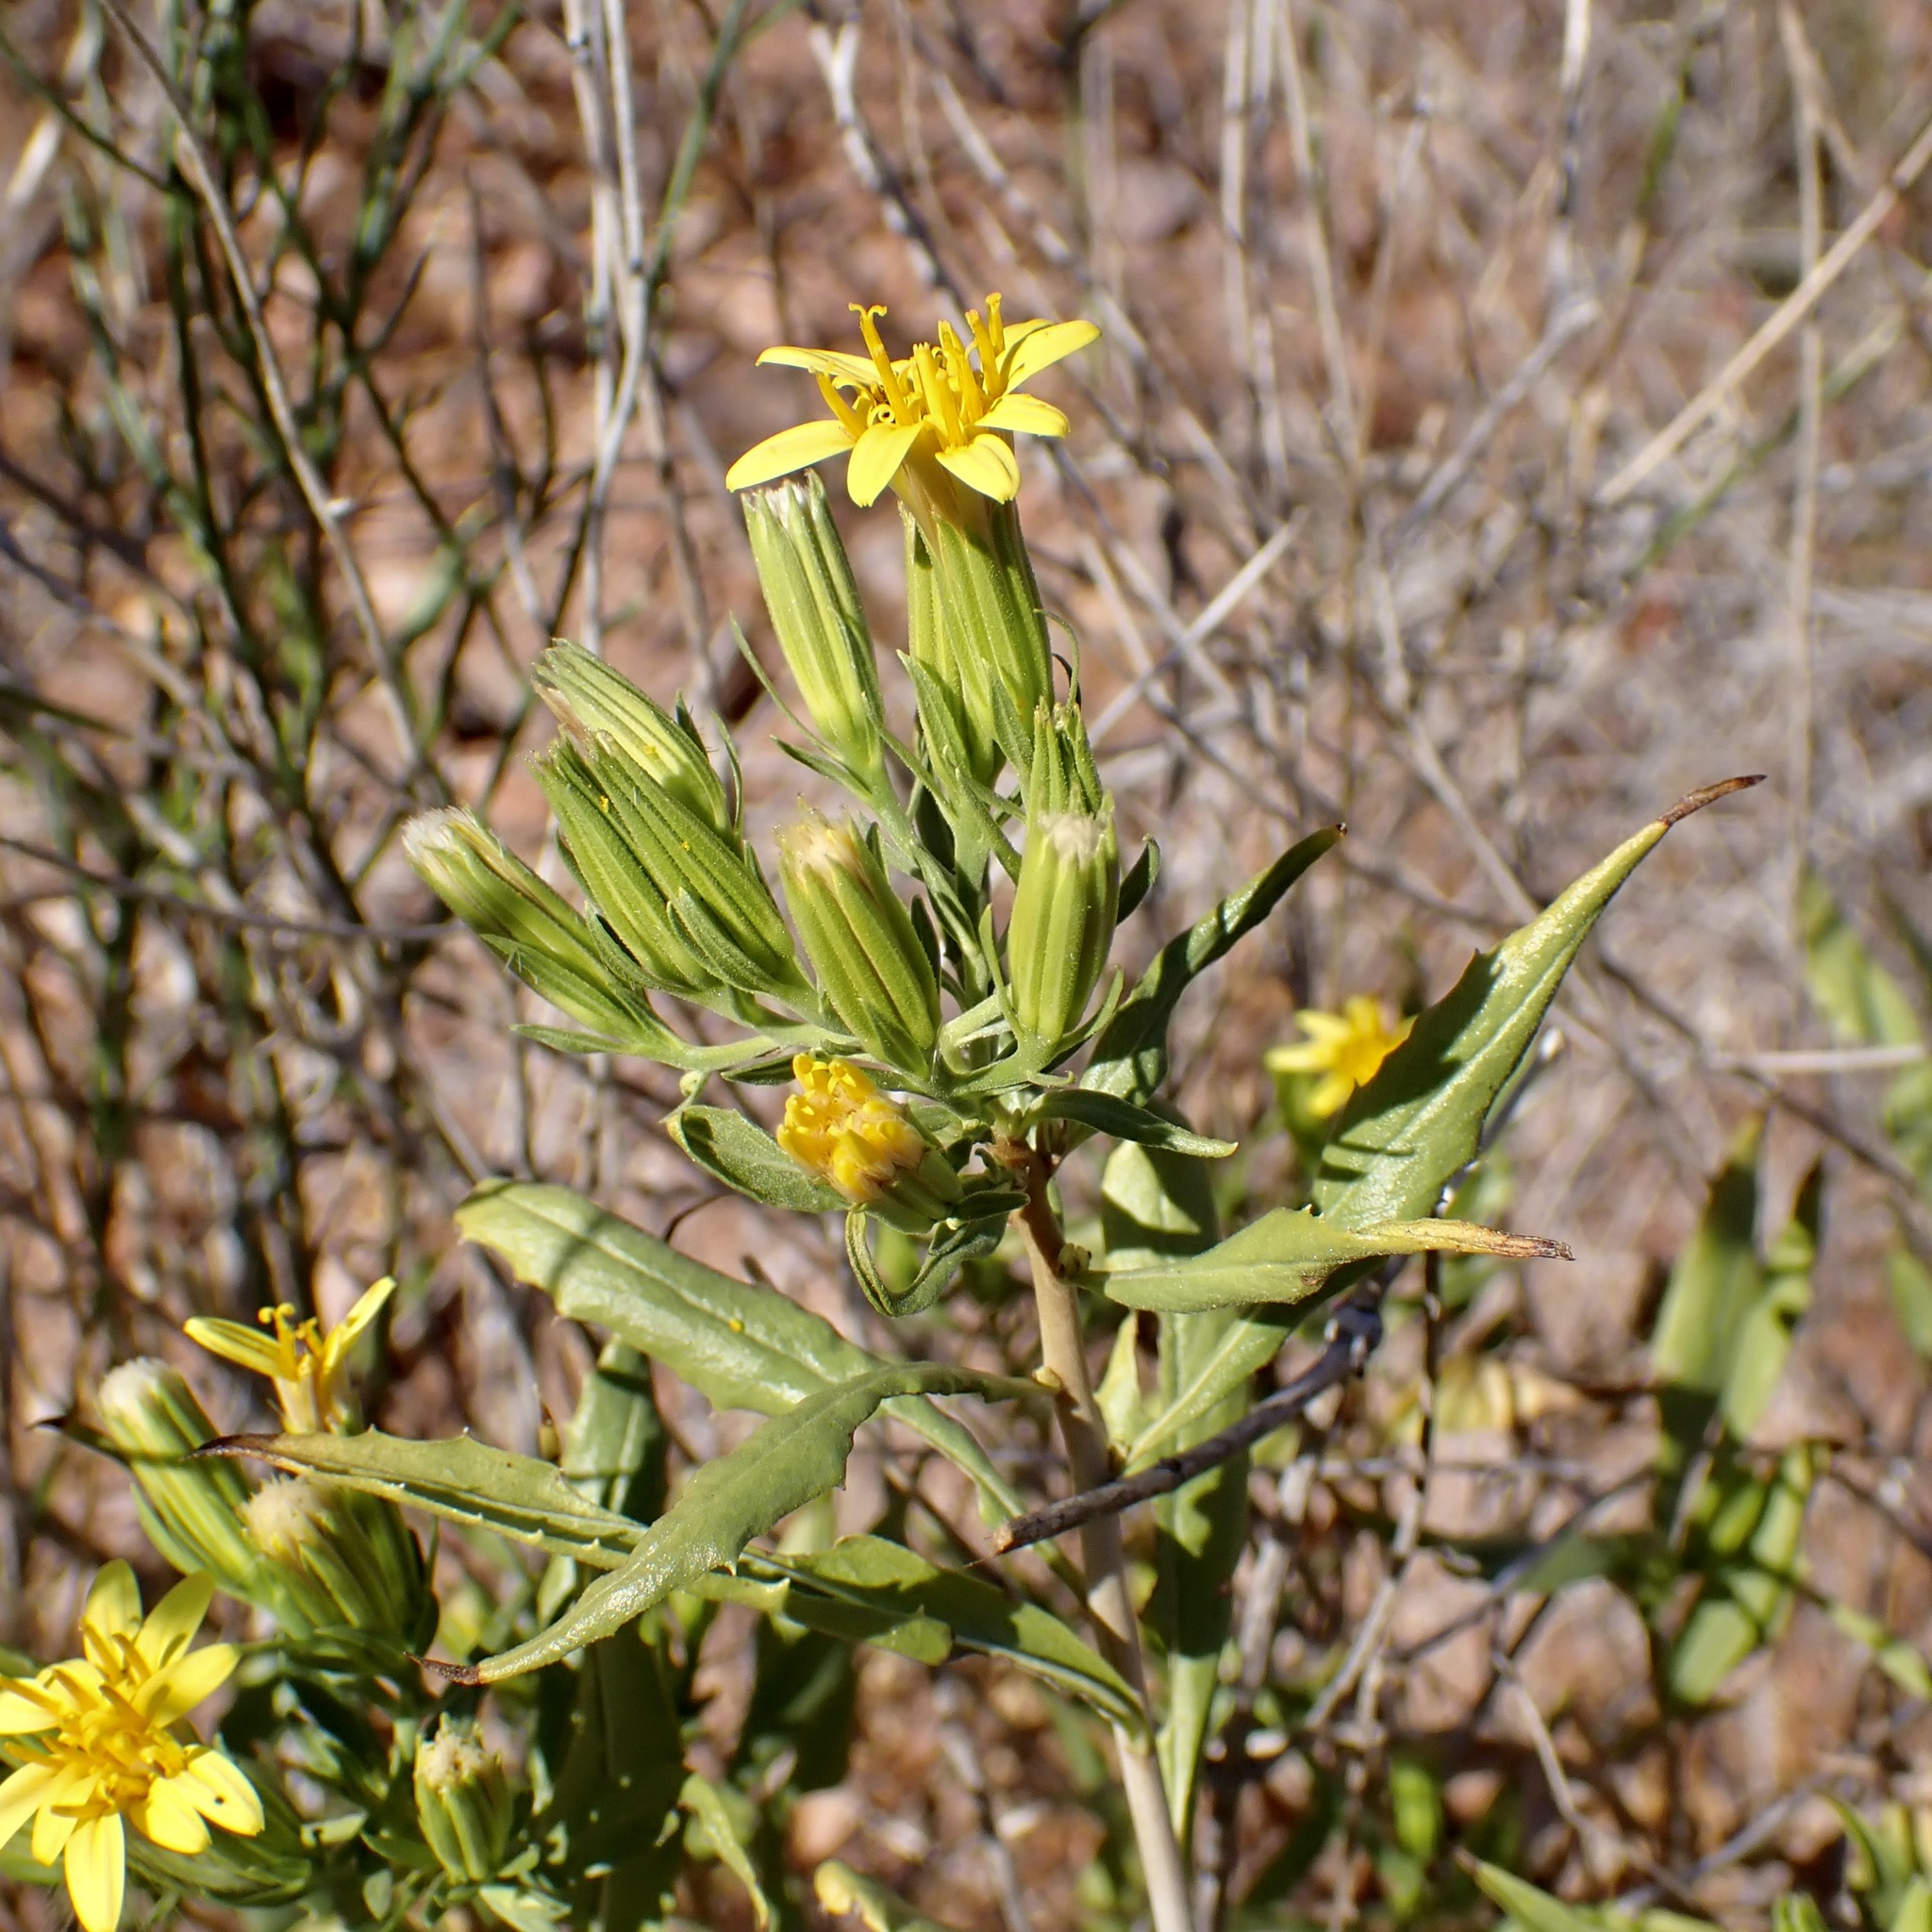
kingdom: Plantae
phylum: Tracheophyta
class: Magnoliopsida
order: Asterales
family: Asteraceae
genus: Trixis
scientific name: Trixis californica
